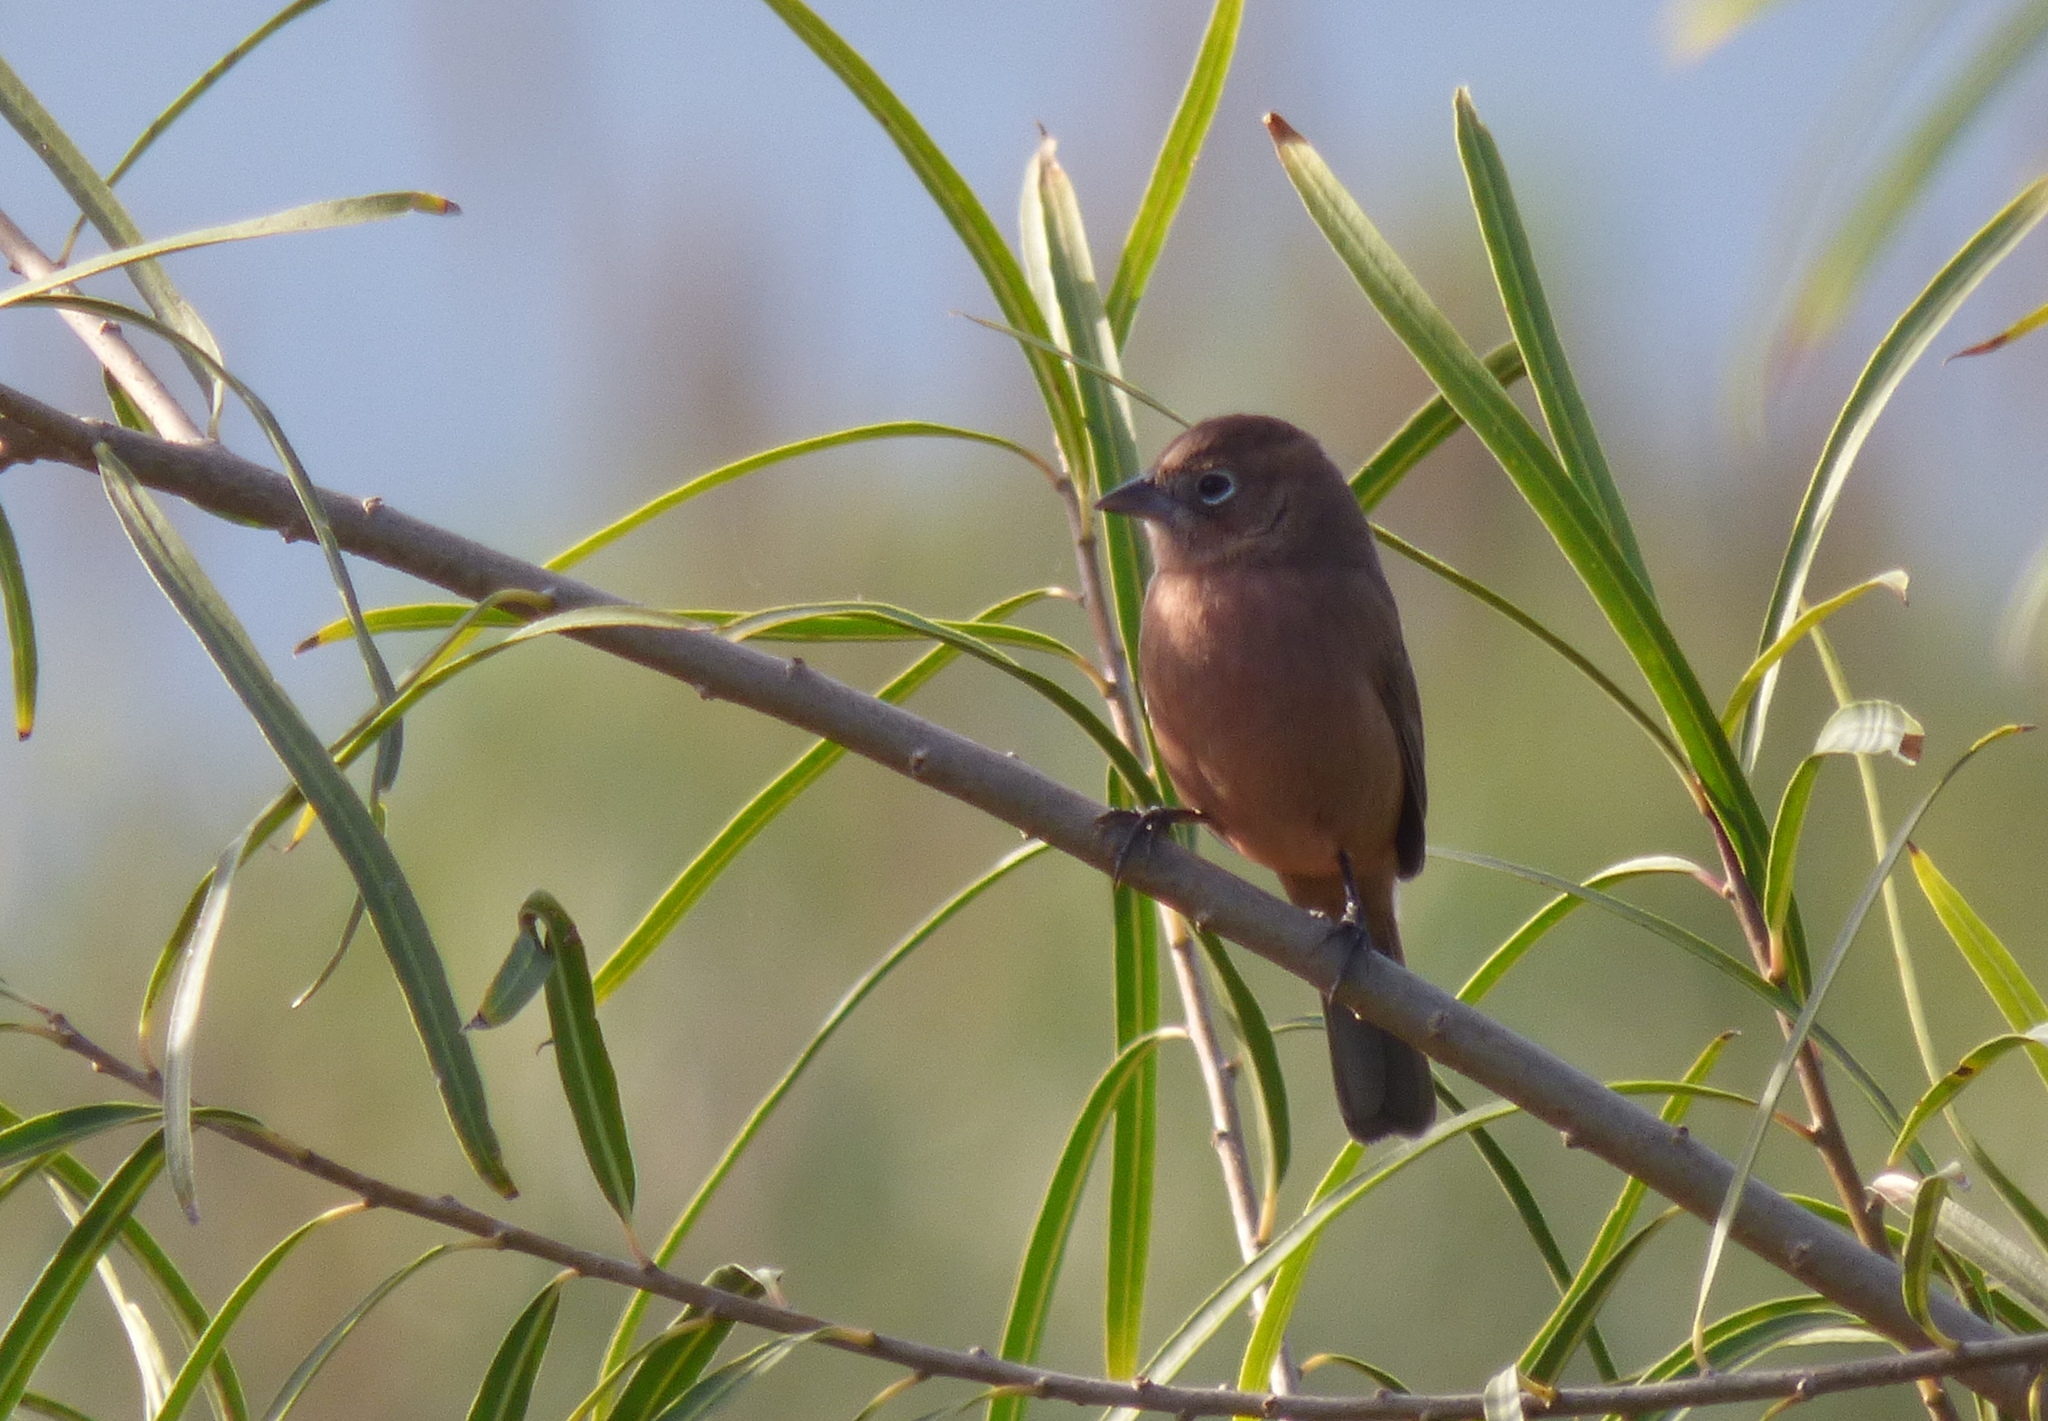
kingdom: Animalia
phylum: Chordata
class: Aves
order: Passeriformes
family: Thraupidae
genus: Coryphospingus
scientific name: Coryphospingus cucullatus
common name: Red pileated finch
